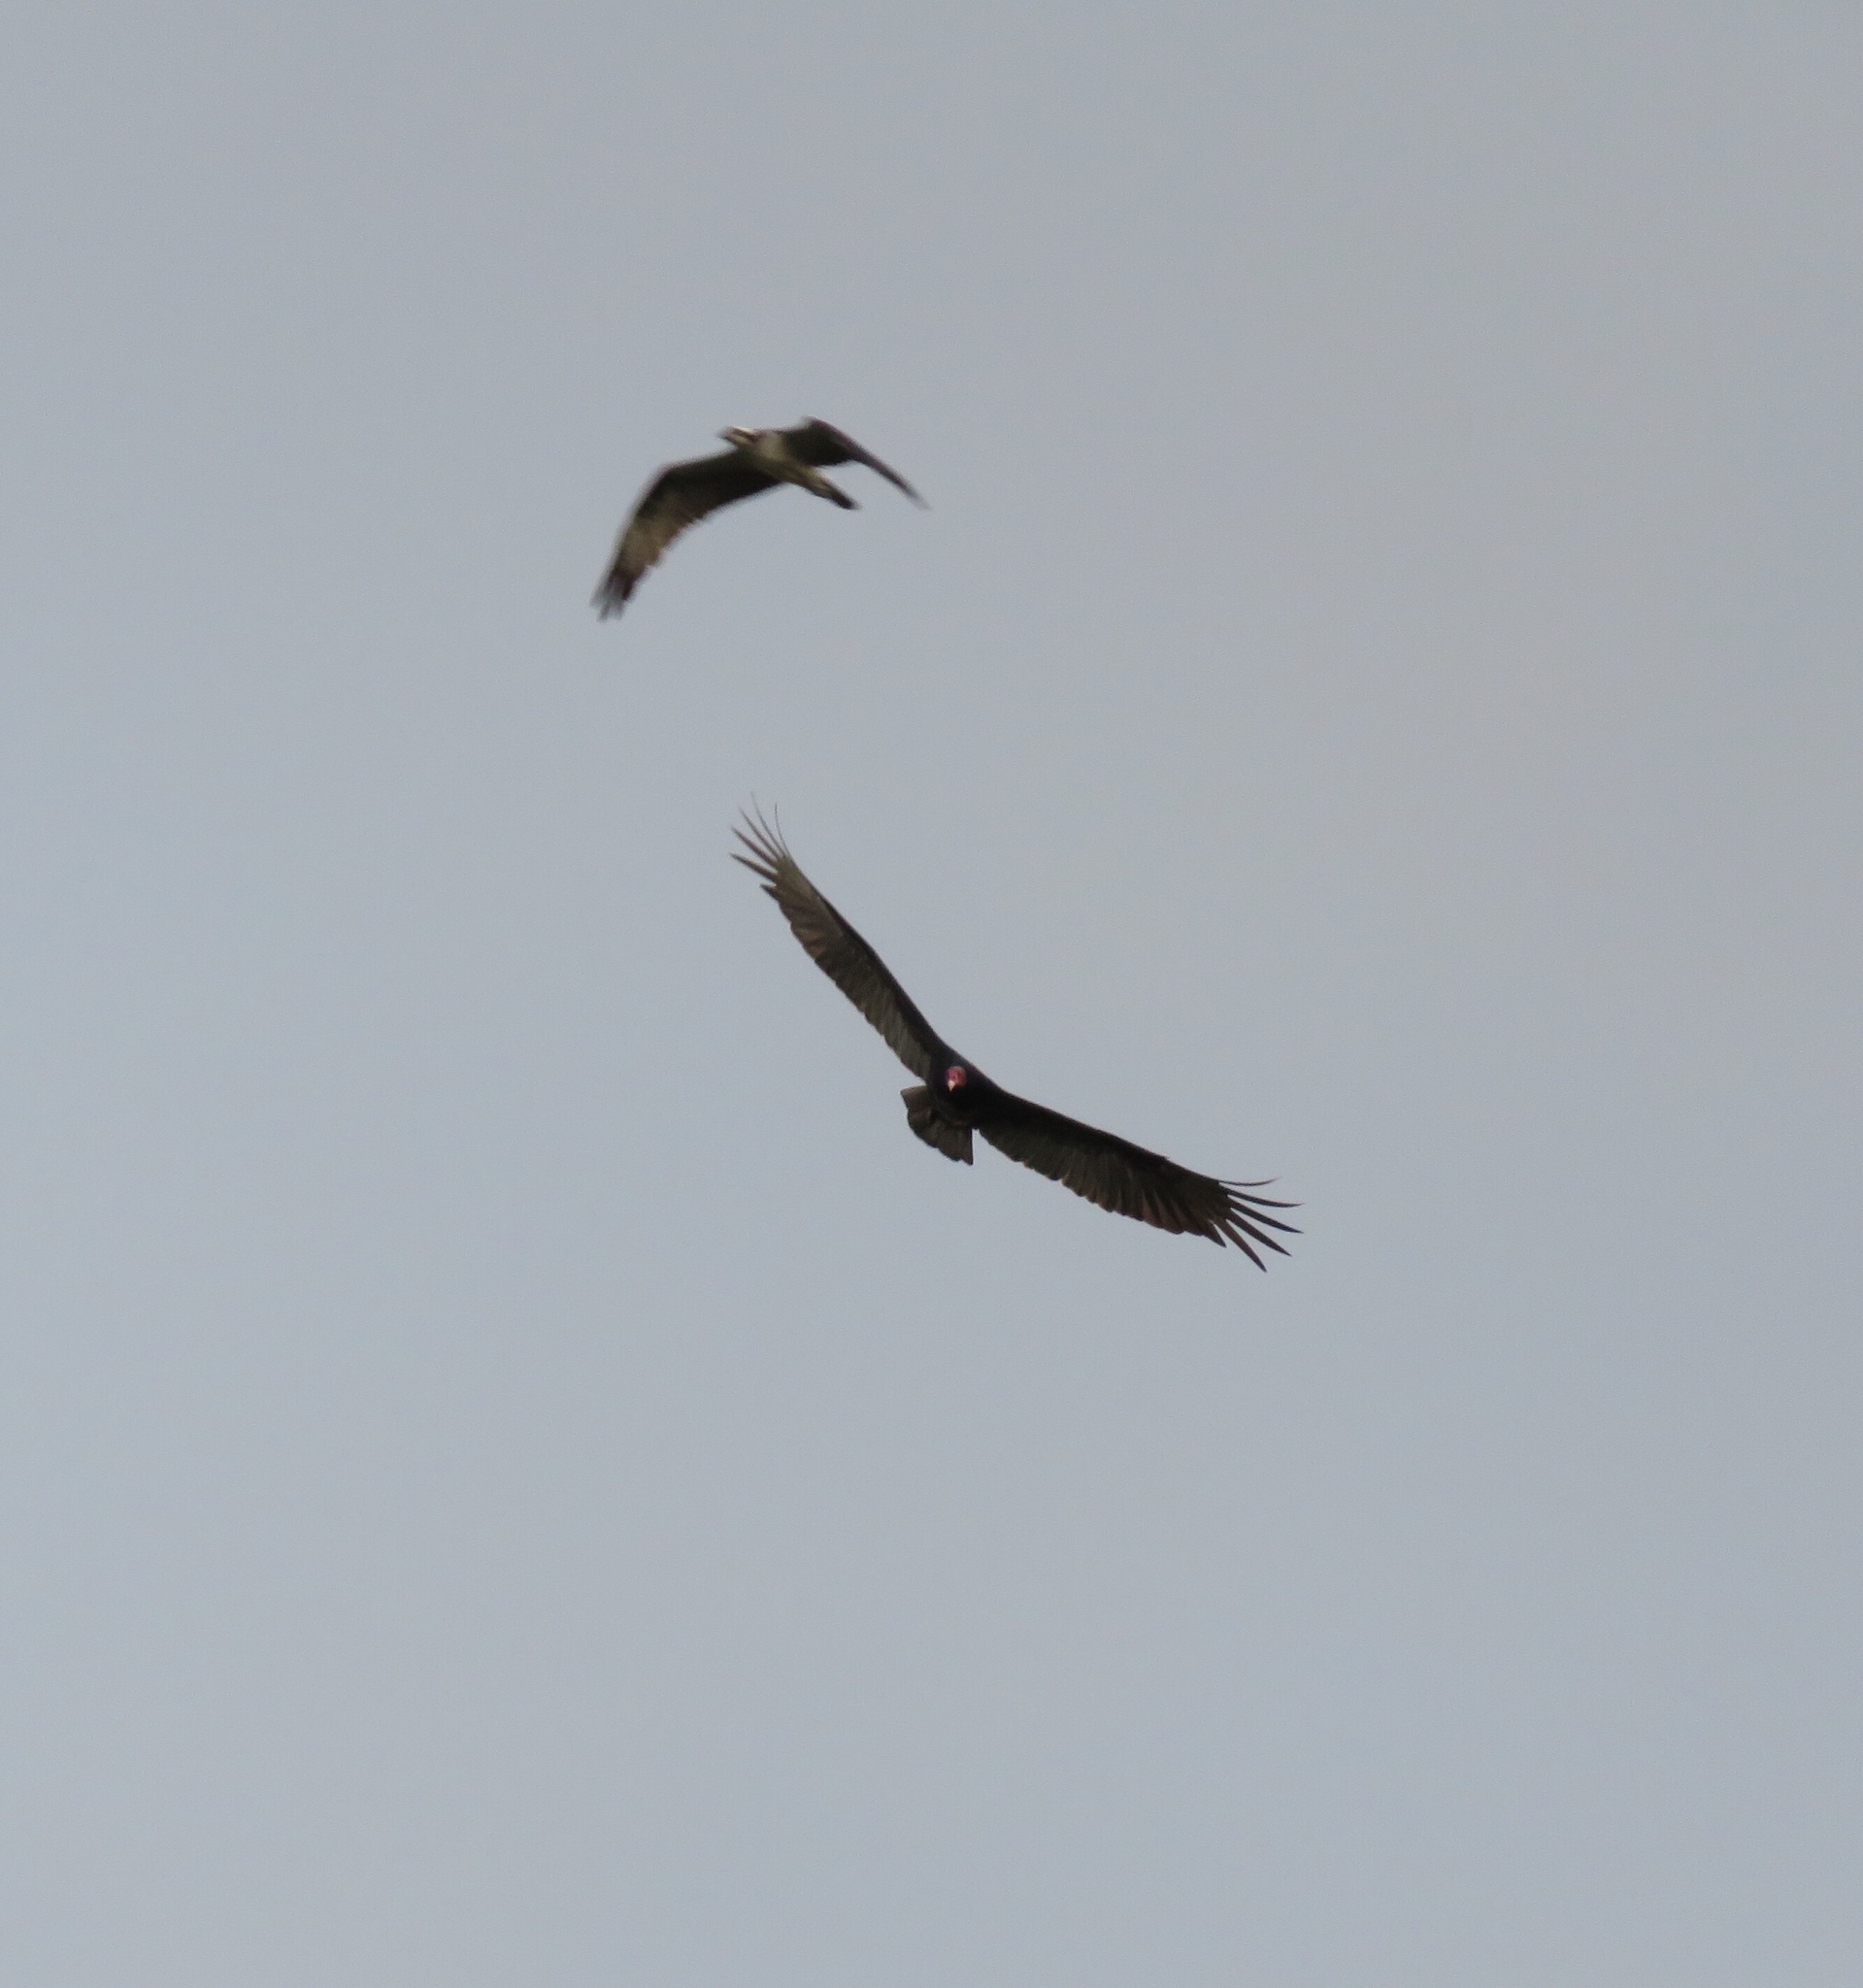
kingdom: Animalia
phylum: Chordata
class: Aves
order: Accipitriformes
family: Cathartidae
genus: Cathartes
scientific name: Cathartes aura
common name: Turkey vulture
